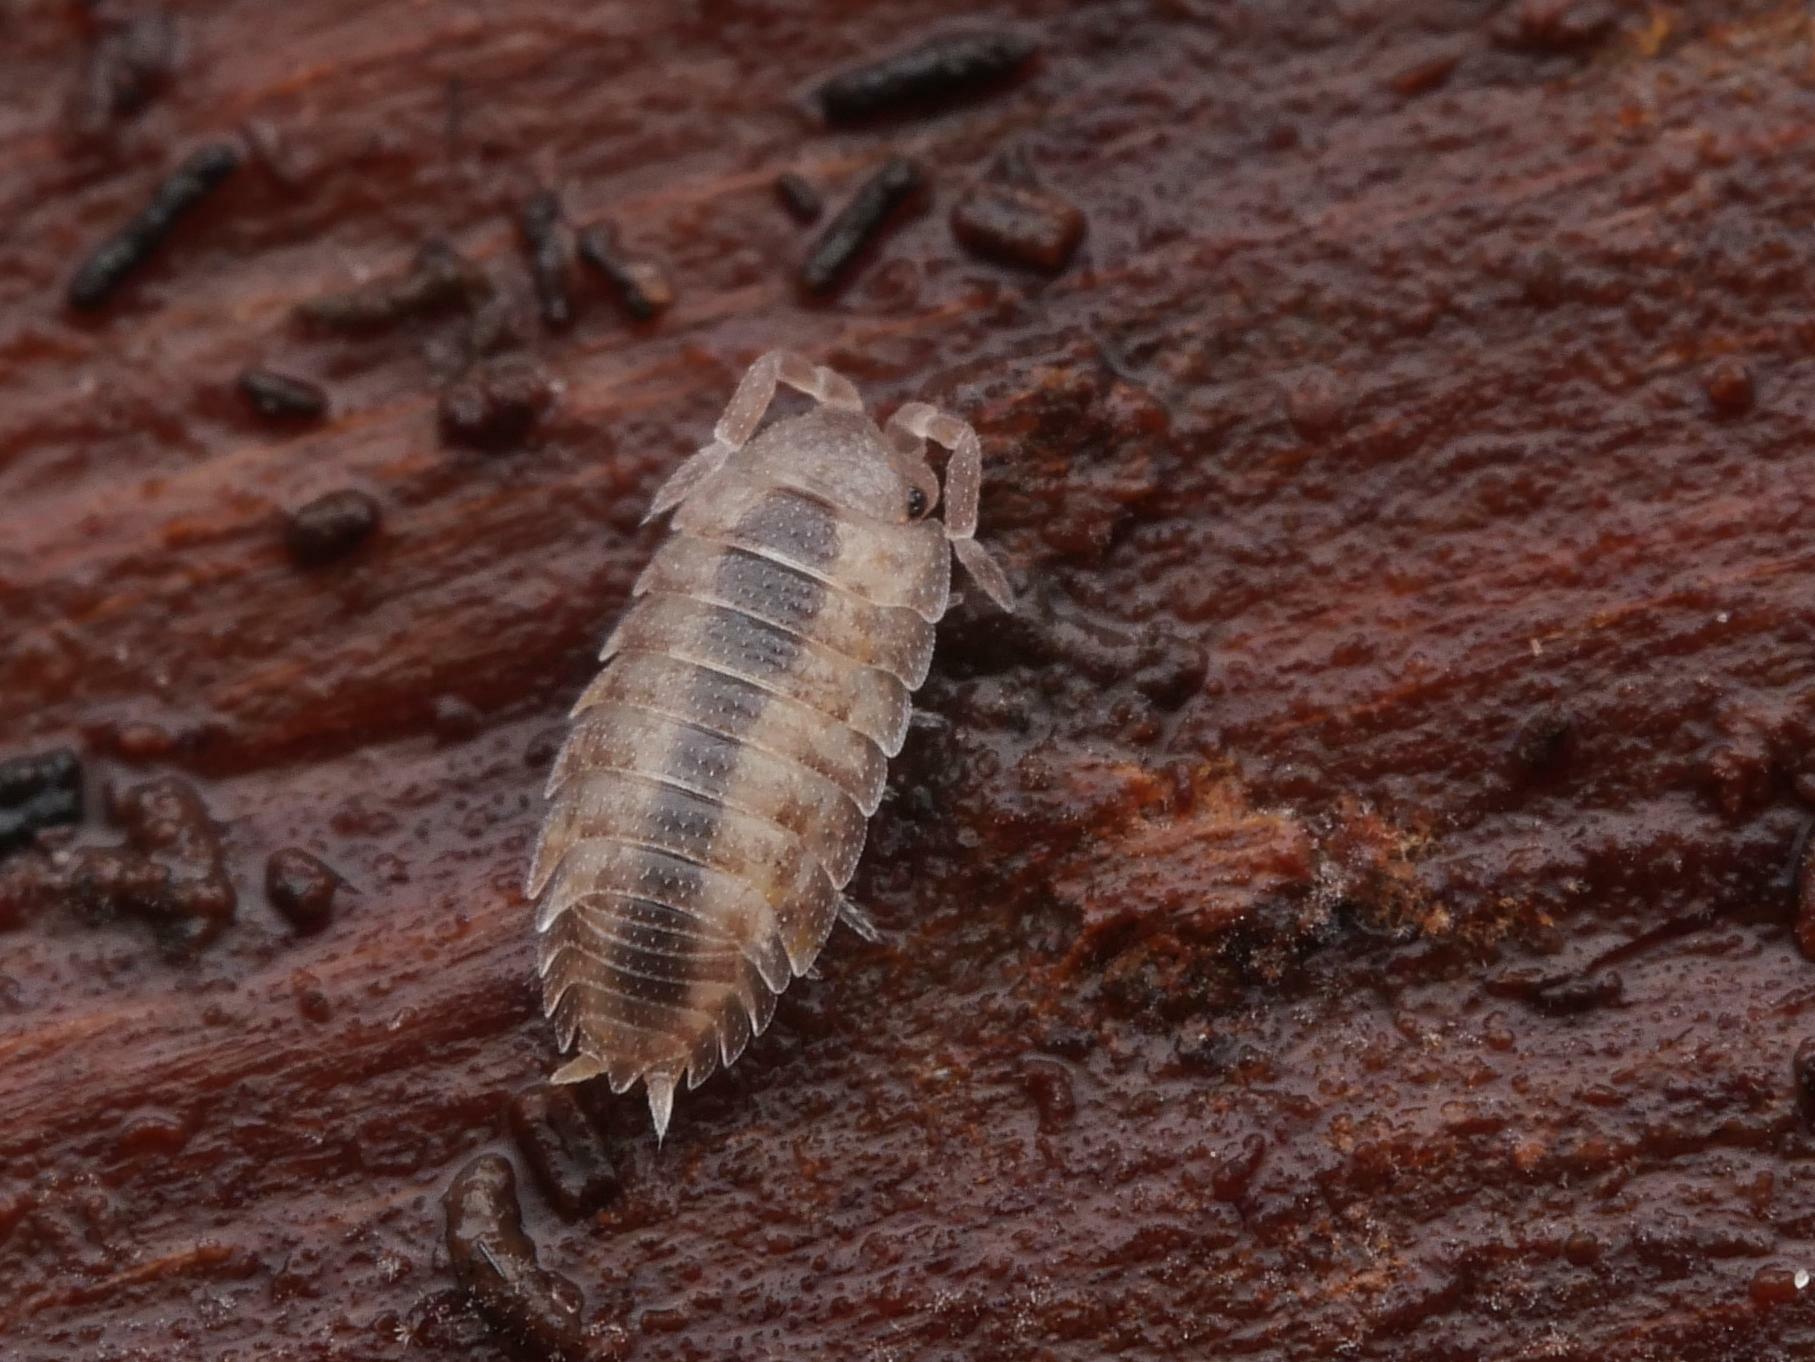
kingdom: Animalia
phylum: Arthropoda
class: Malacostraca
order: Isopoda
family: Porcellionidae
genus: Porcellio
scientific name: Porcellio scaber
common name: Common rough woodlouse
